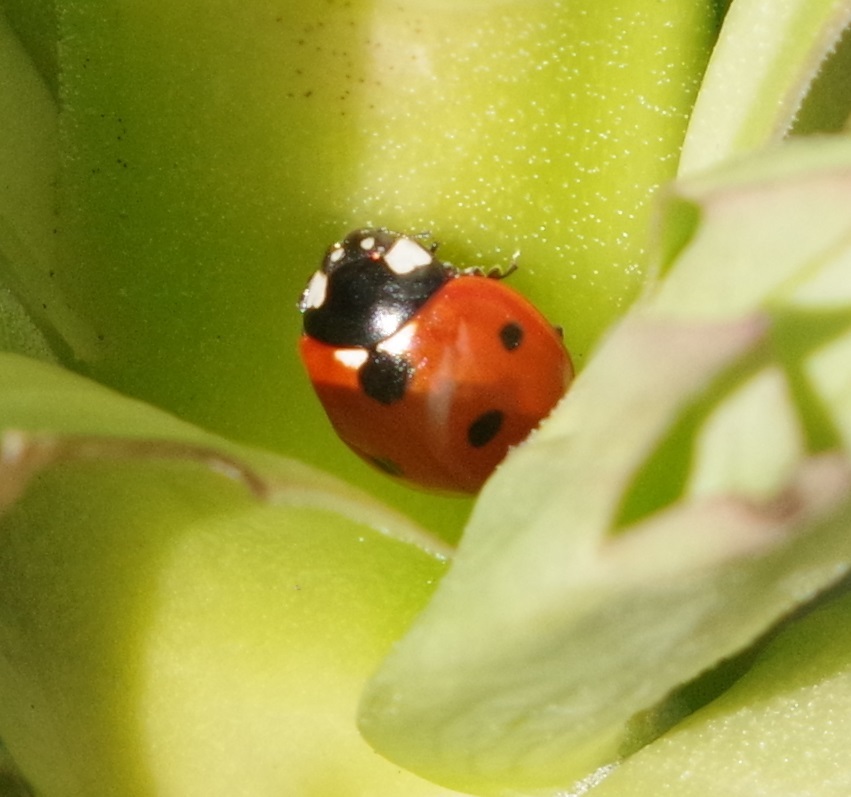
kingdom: Animalia
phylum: Arthropoda
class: Insecta
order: Coleoptera
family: Coccinellidae
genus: Coccinella
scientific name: Coccinella septempunctata
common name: Sevenspotted lady beetle
